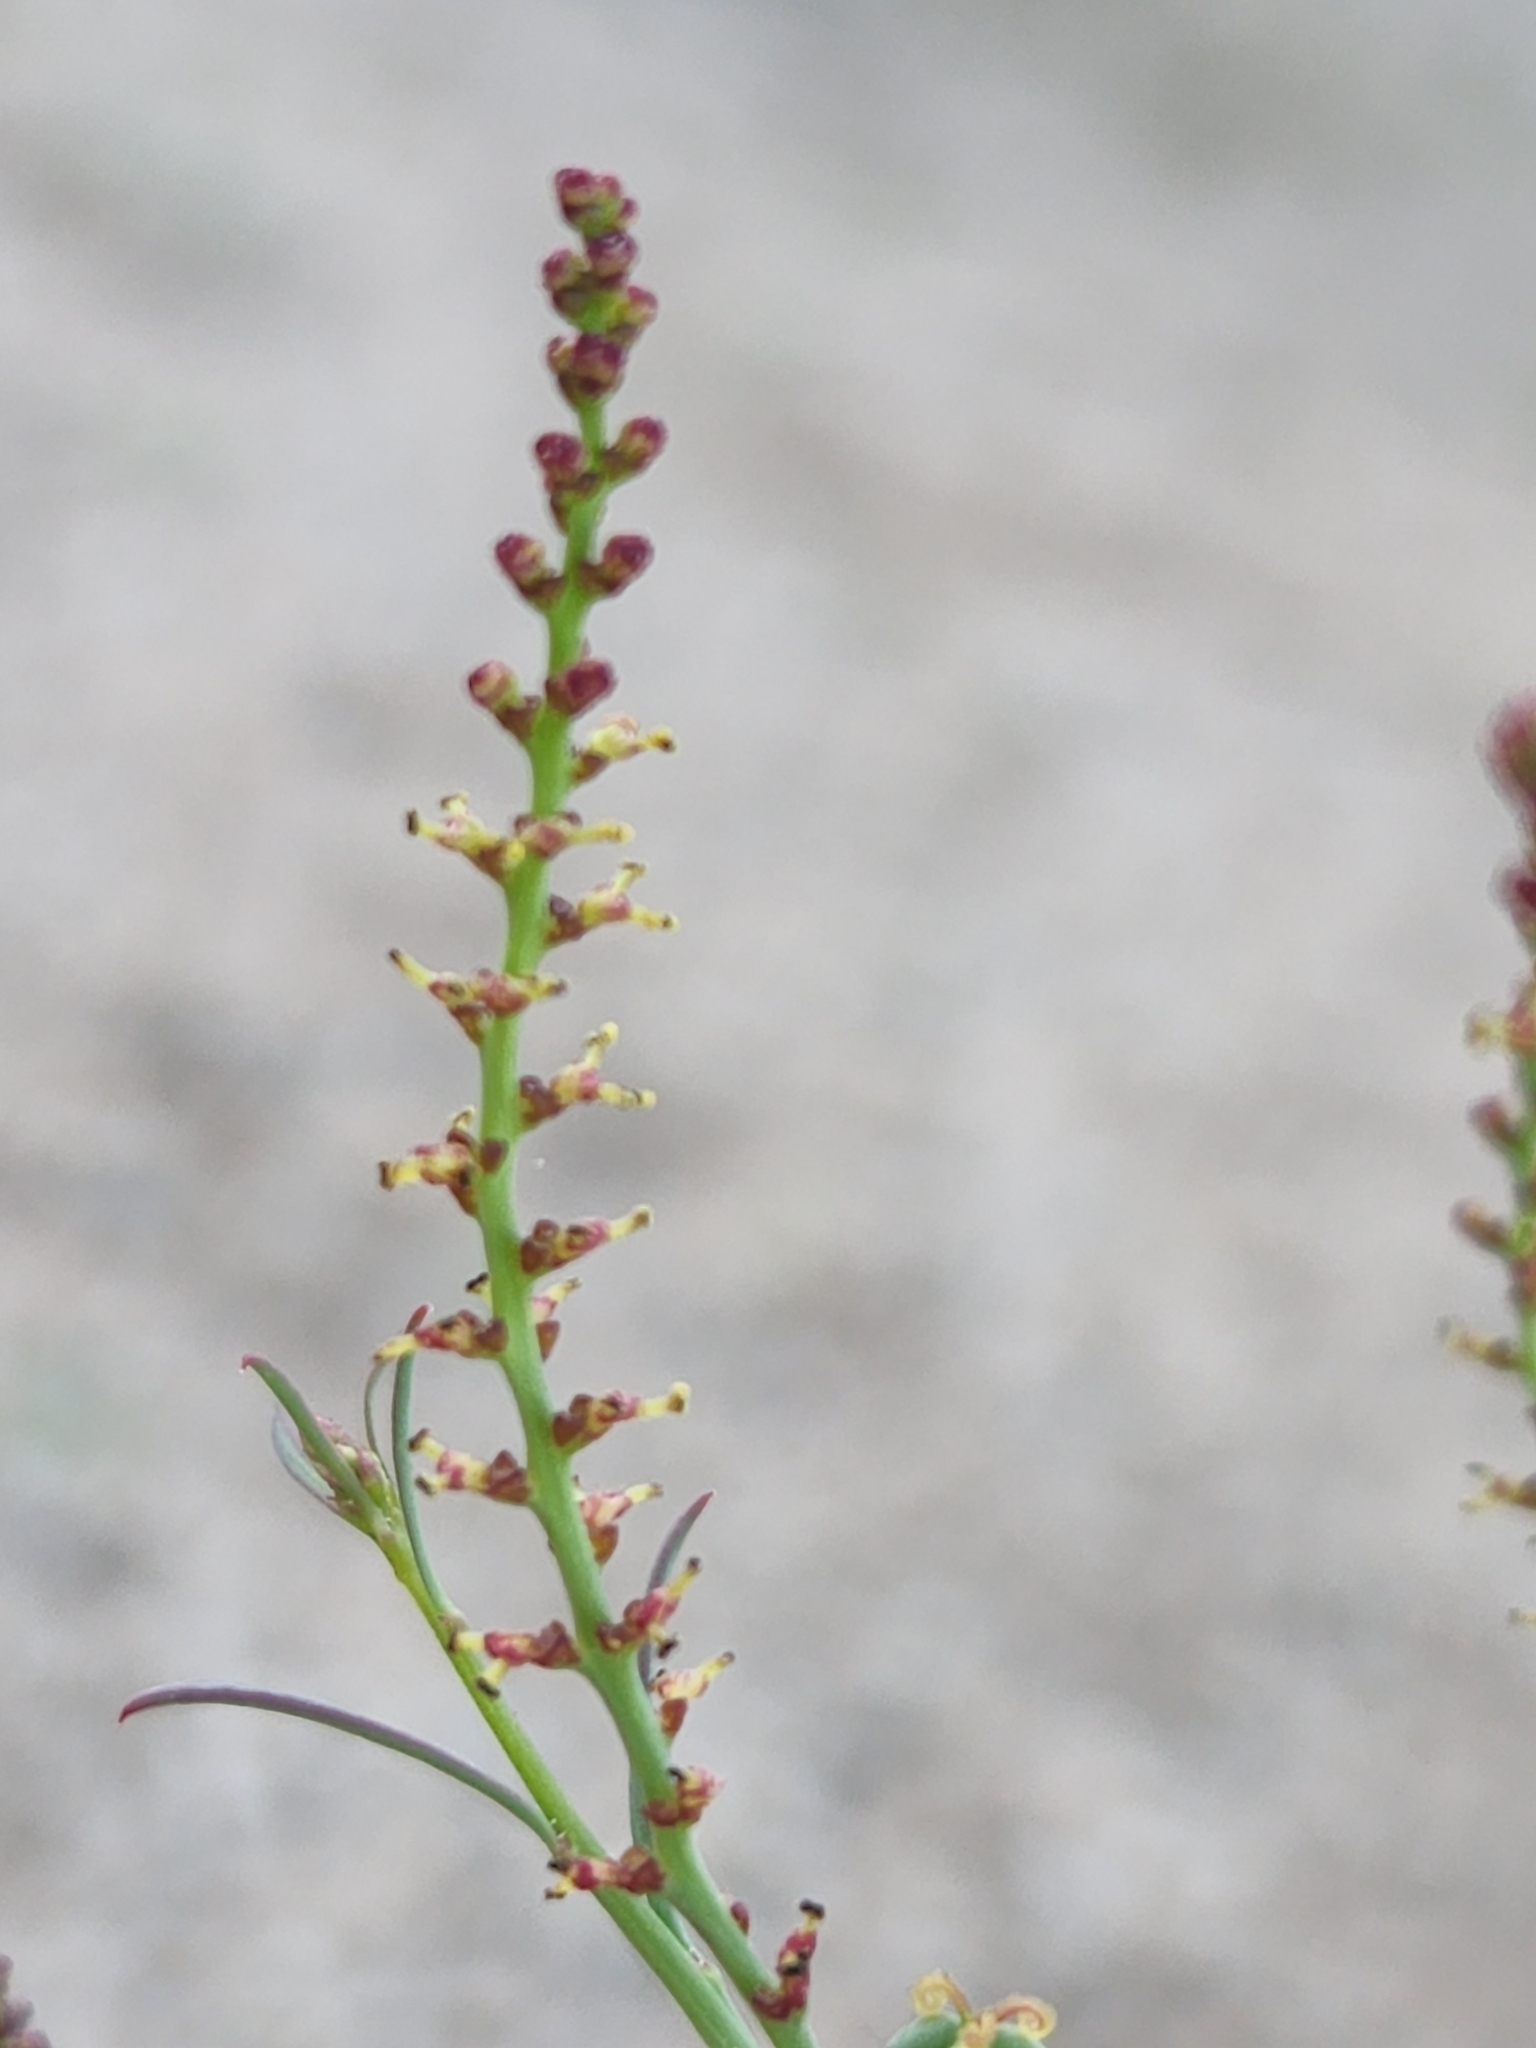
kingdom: Plantae
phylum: Tracheophyta
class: Magnoliopsida
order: Malpighiales
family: Euphorbiaceae
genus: Stillingia
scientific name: Stillingia linearifolia
